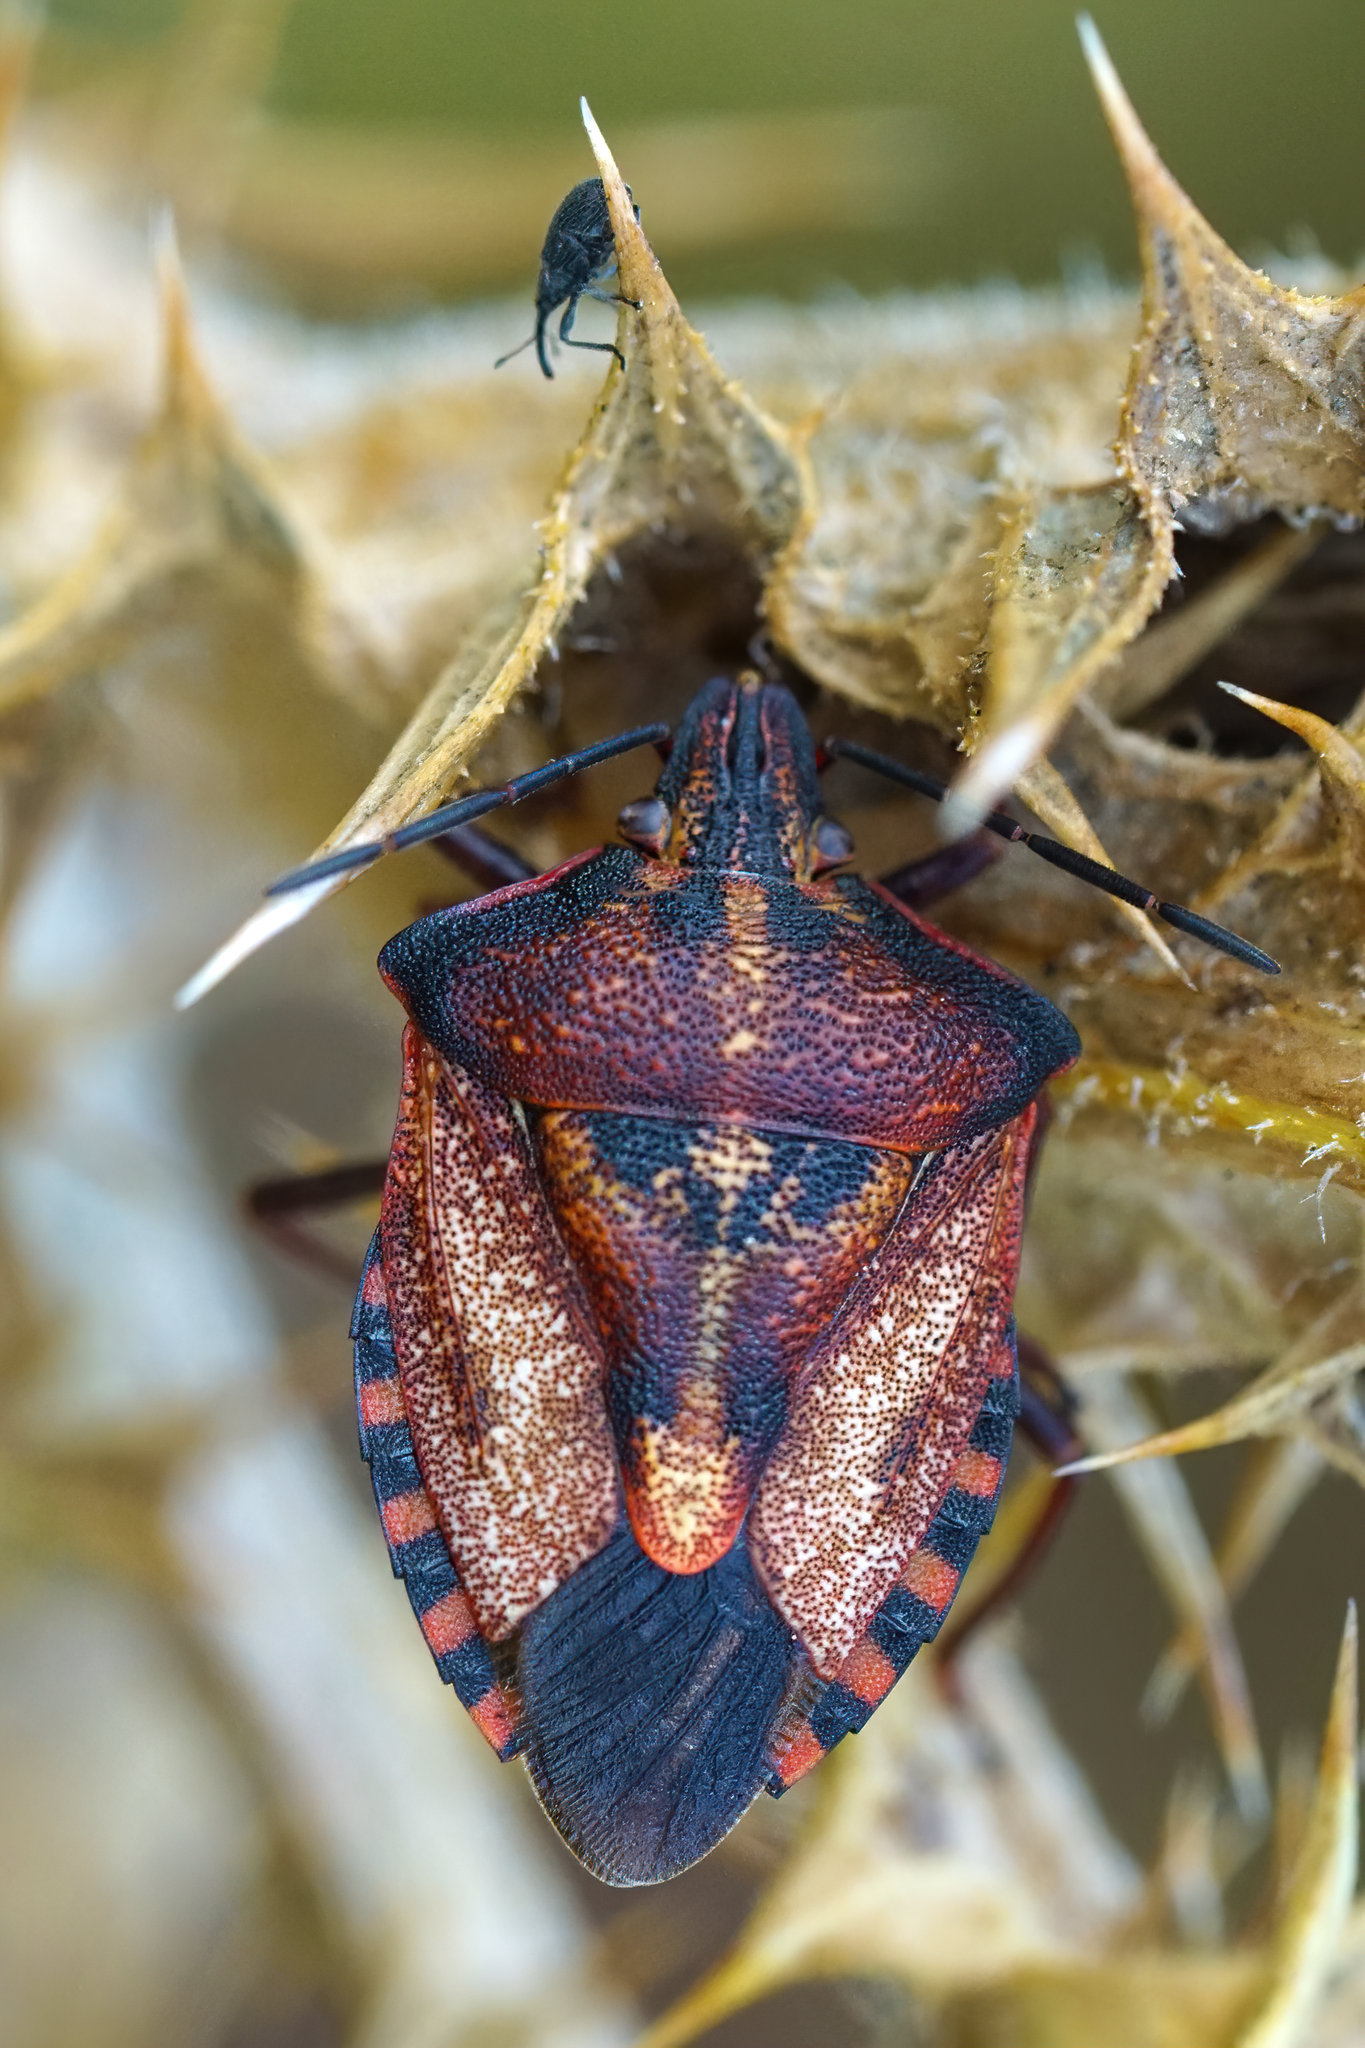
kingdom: Animalia
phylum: Arthropoda
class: Insecta
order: Hemiptera
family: Pentatomidae
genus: Carpocoris
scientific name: Carpocoris mediterraneus
